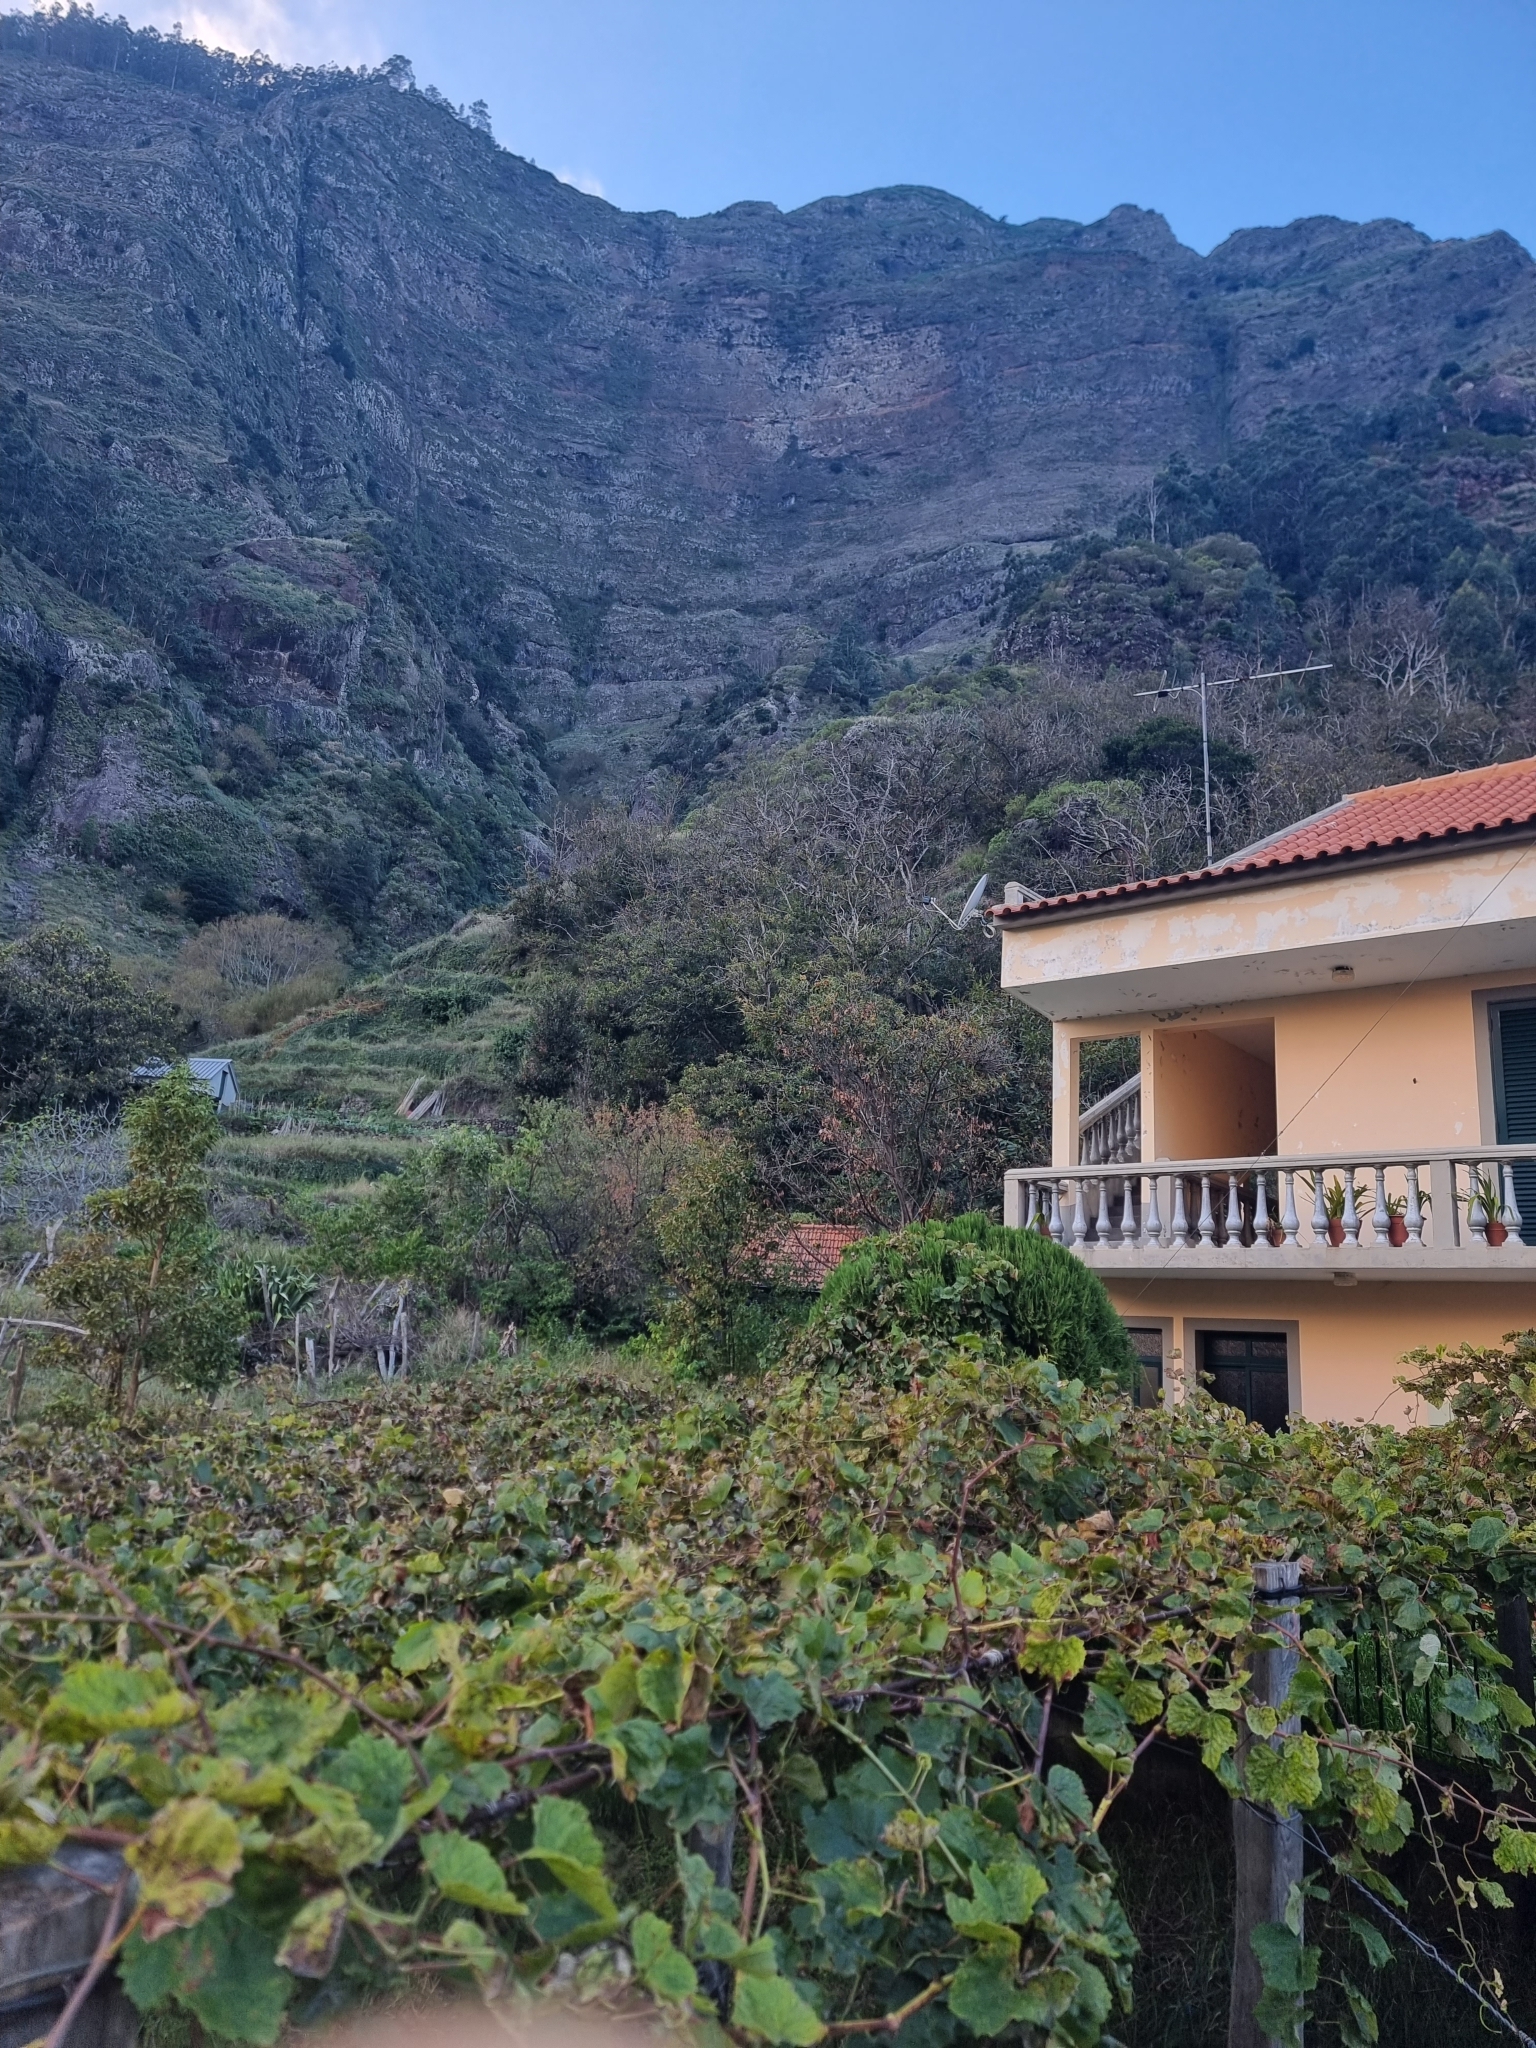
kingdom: Plantae
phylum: Tracheophyta
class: Magnoliopsida
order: Fagales
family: Fagaceae
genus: Castanea
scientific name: Castanea sativa
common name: Sweet chestnut
